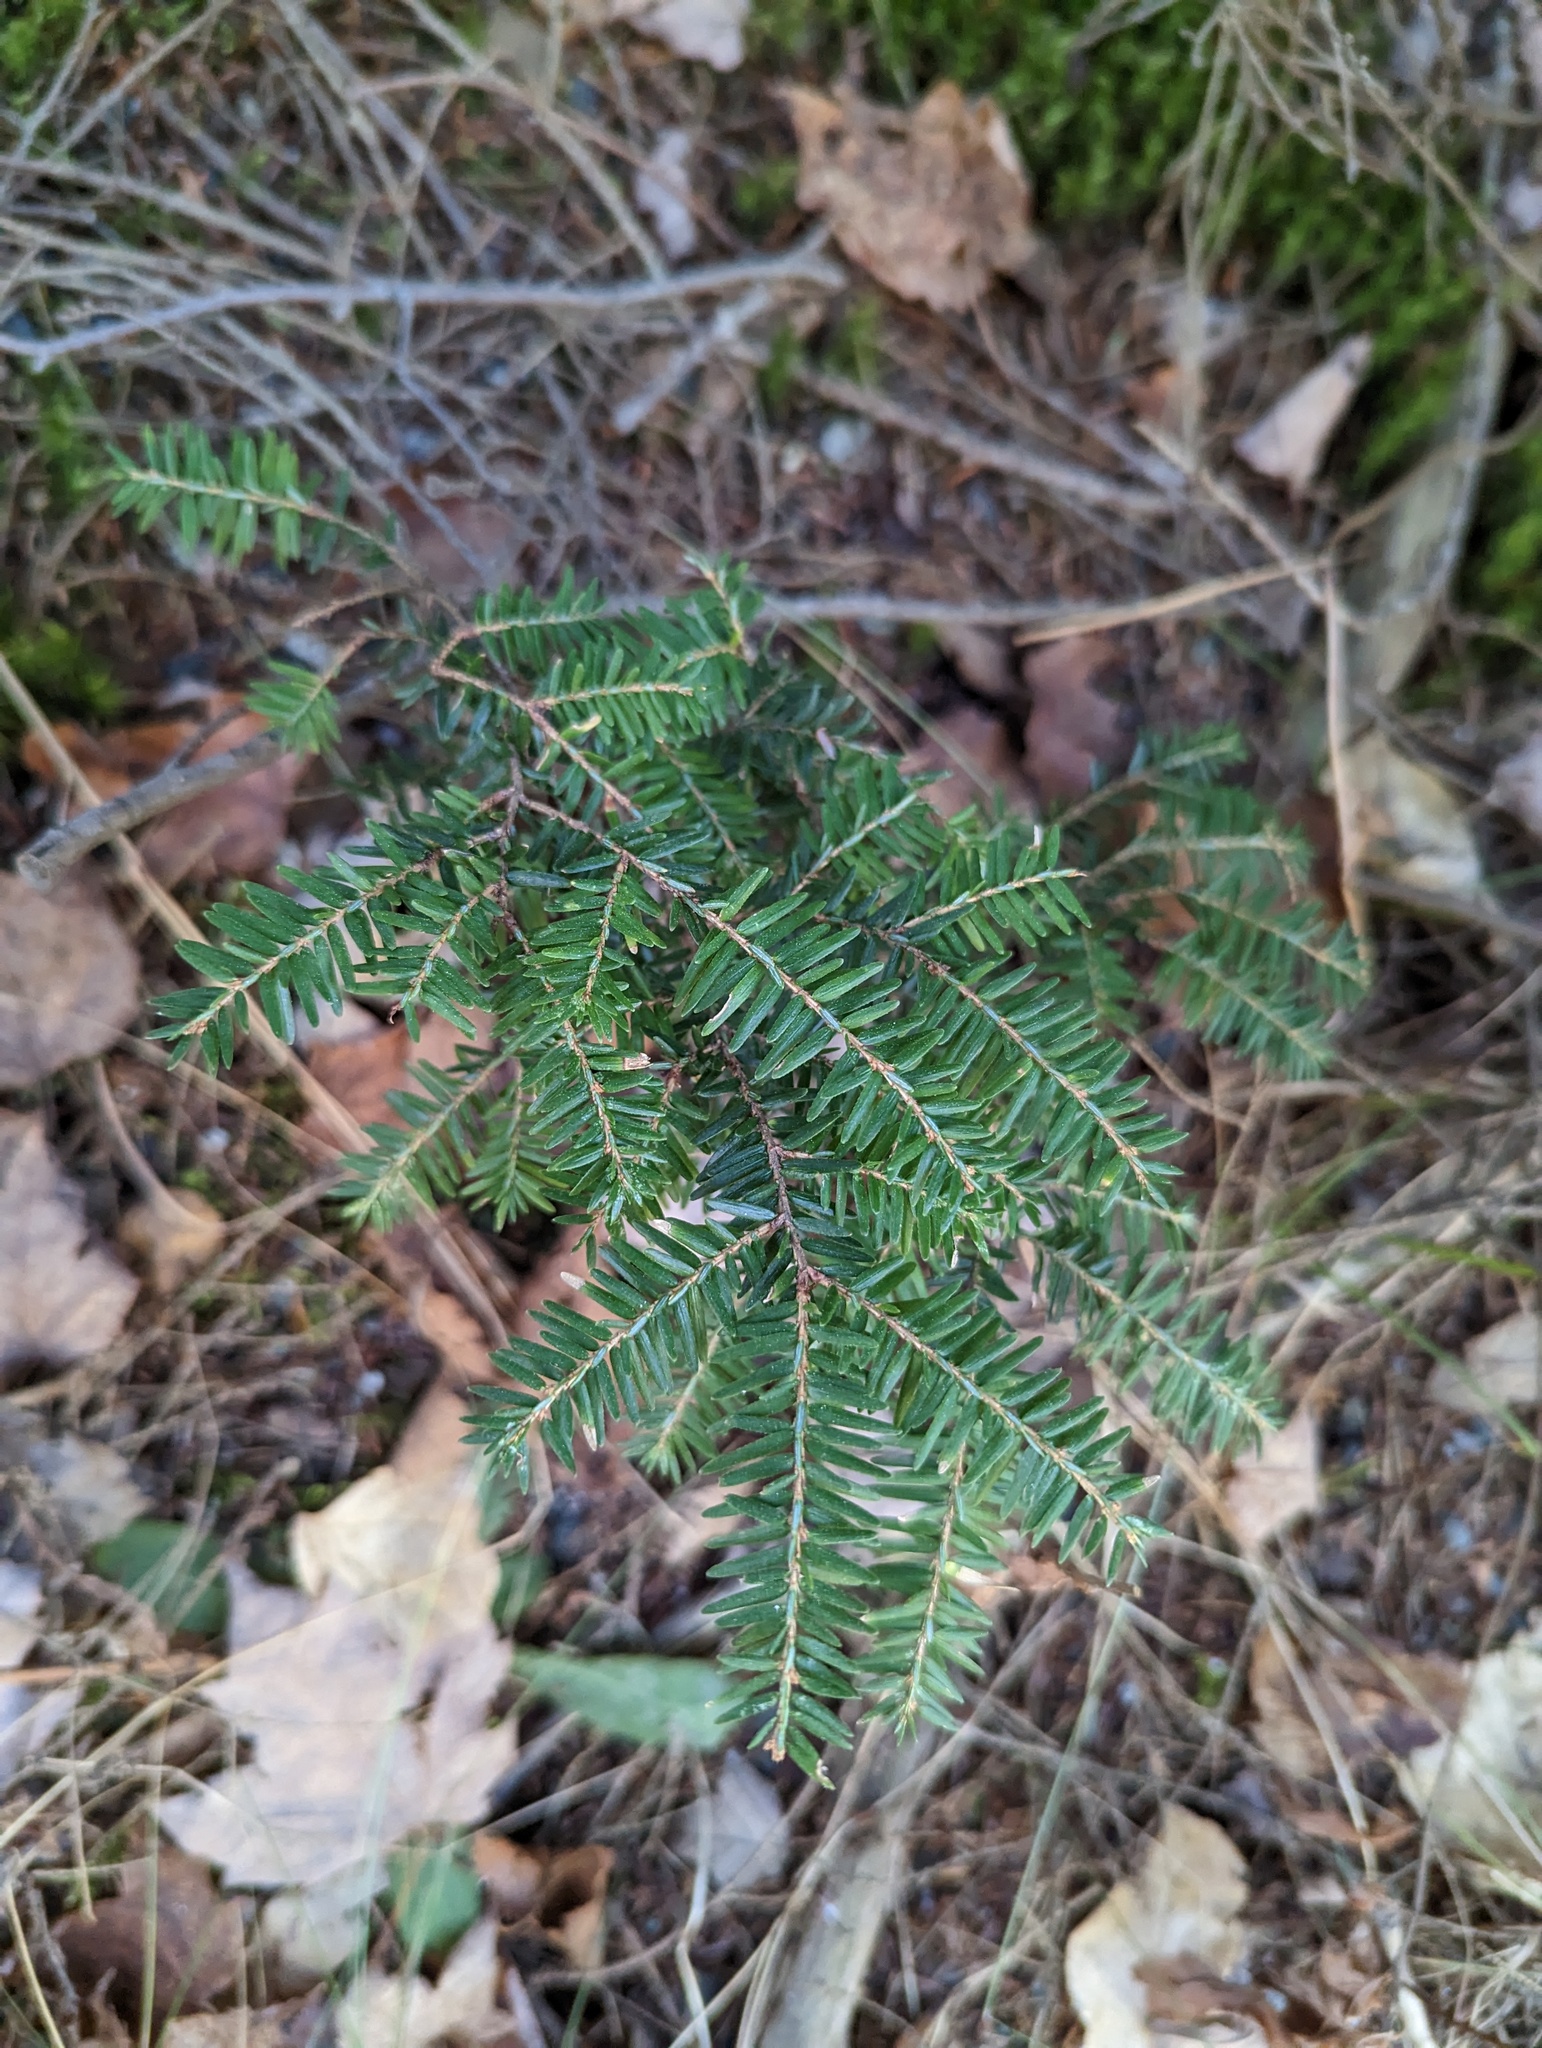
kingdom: Plantae
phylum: Tracheophyta
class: Pinopsida
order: Pinales
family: Pinaceae
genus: Tsuga
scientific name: Tsuga canadensis
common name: Eastern hemlock
